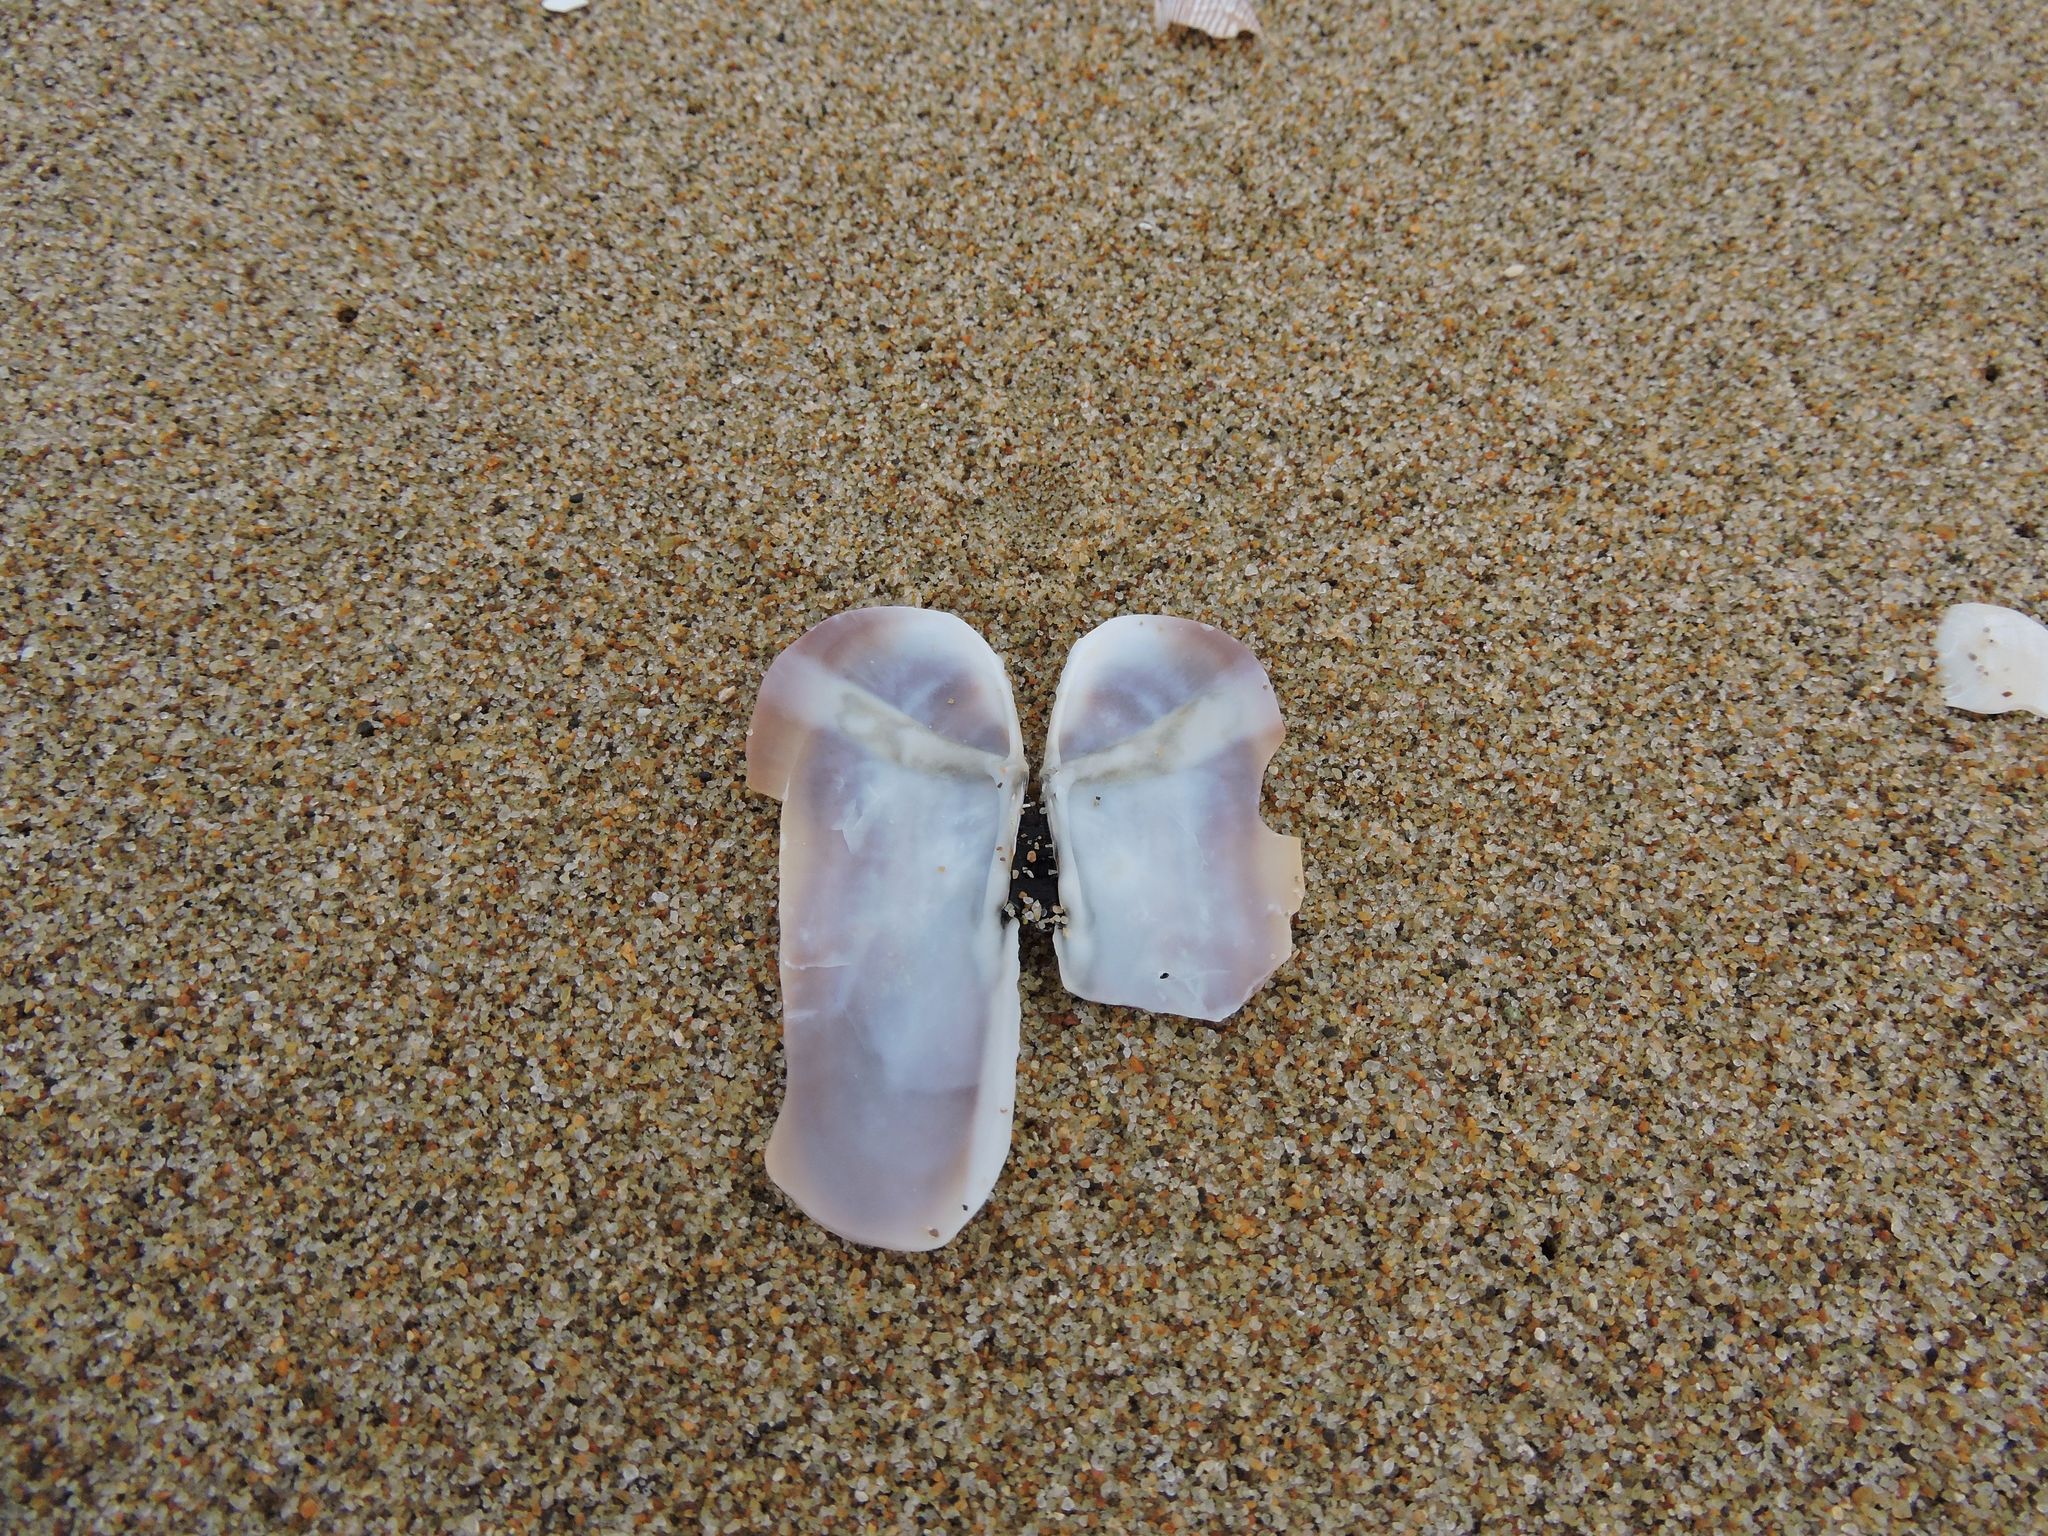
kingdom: Animalia
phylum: Mollusca
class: Bivalvia
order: Adapedonta
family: Pharidae
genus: Siliqua
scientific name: Siliqua lucida
